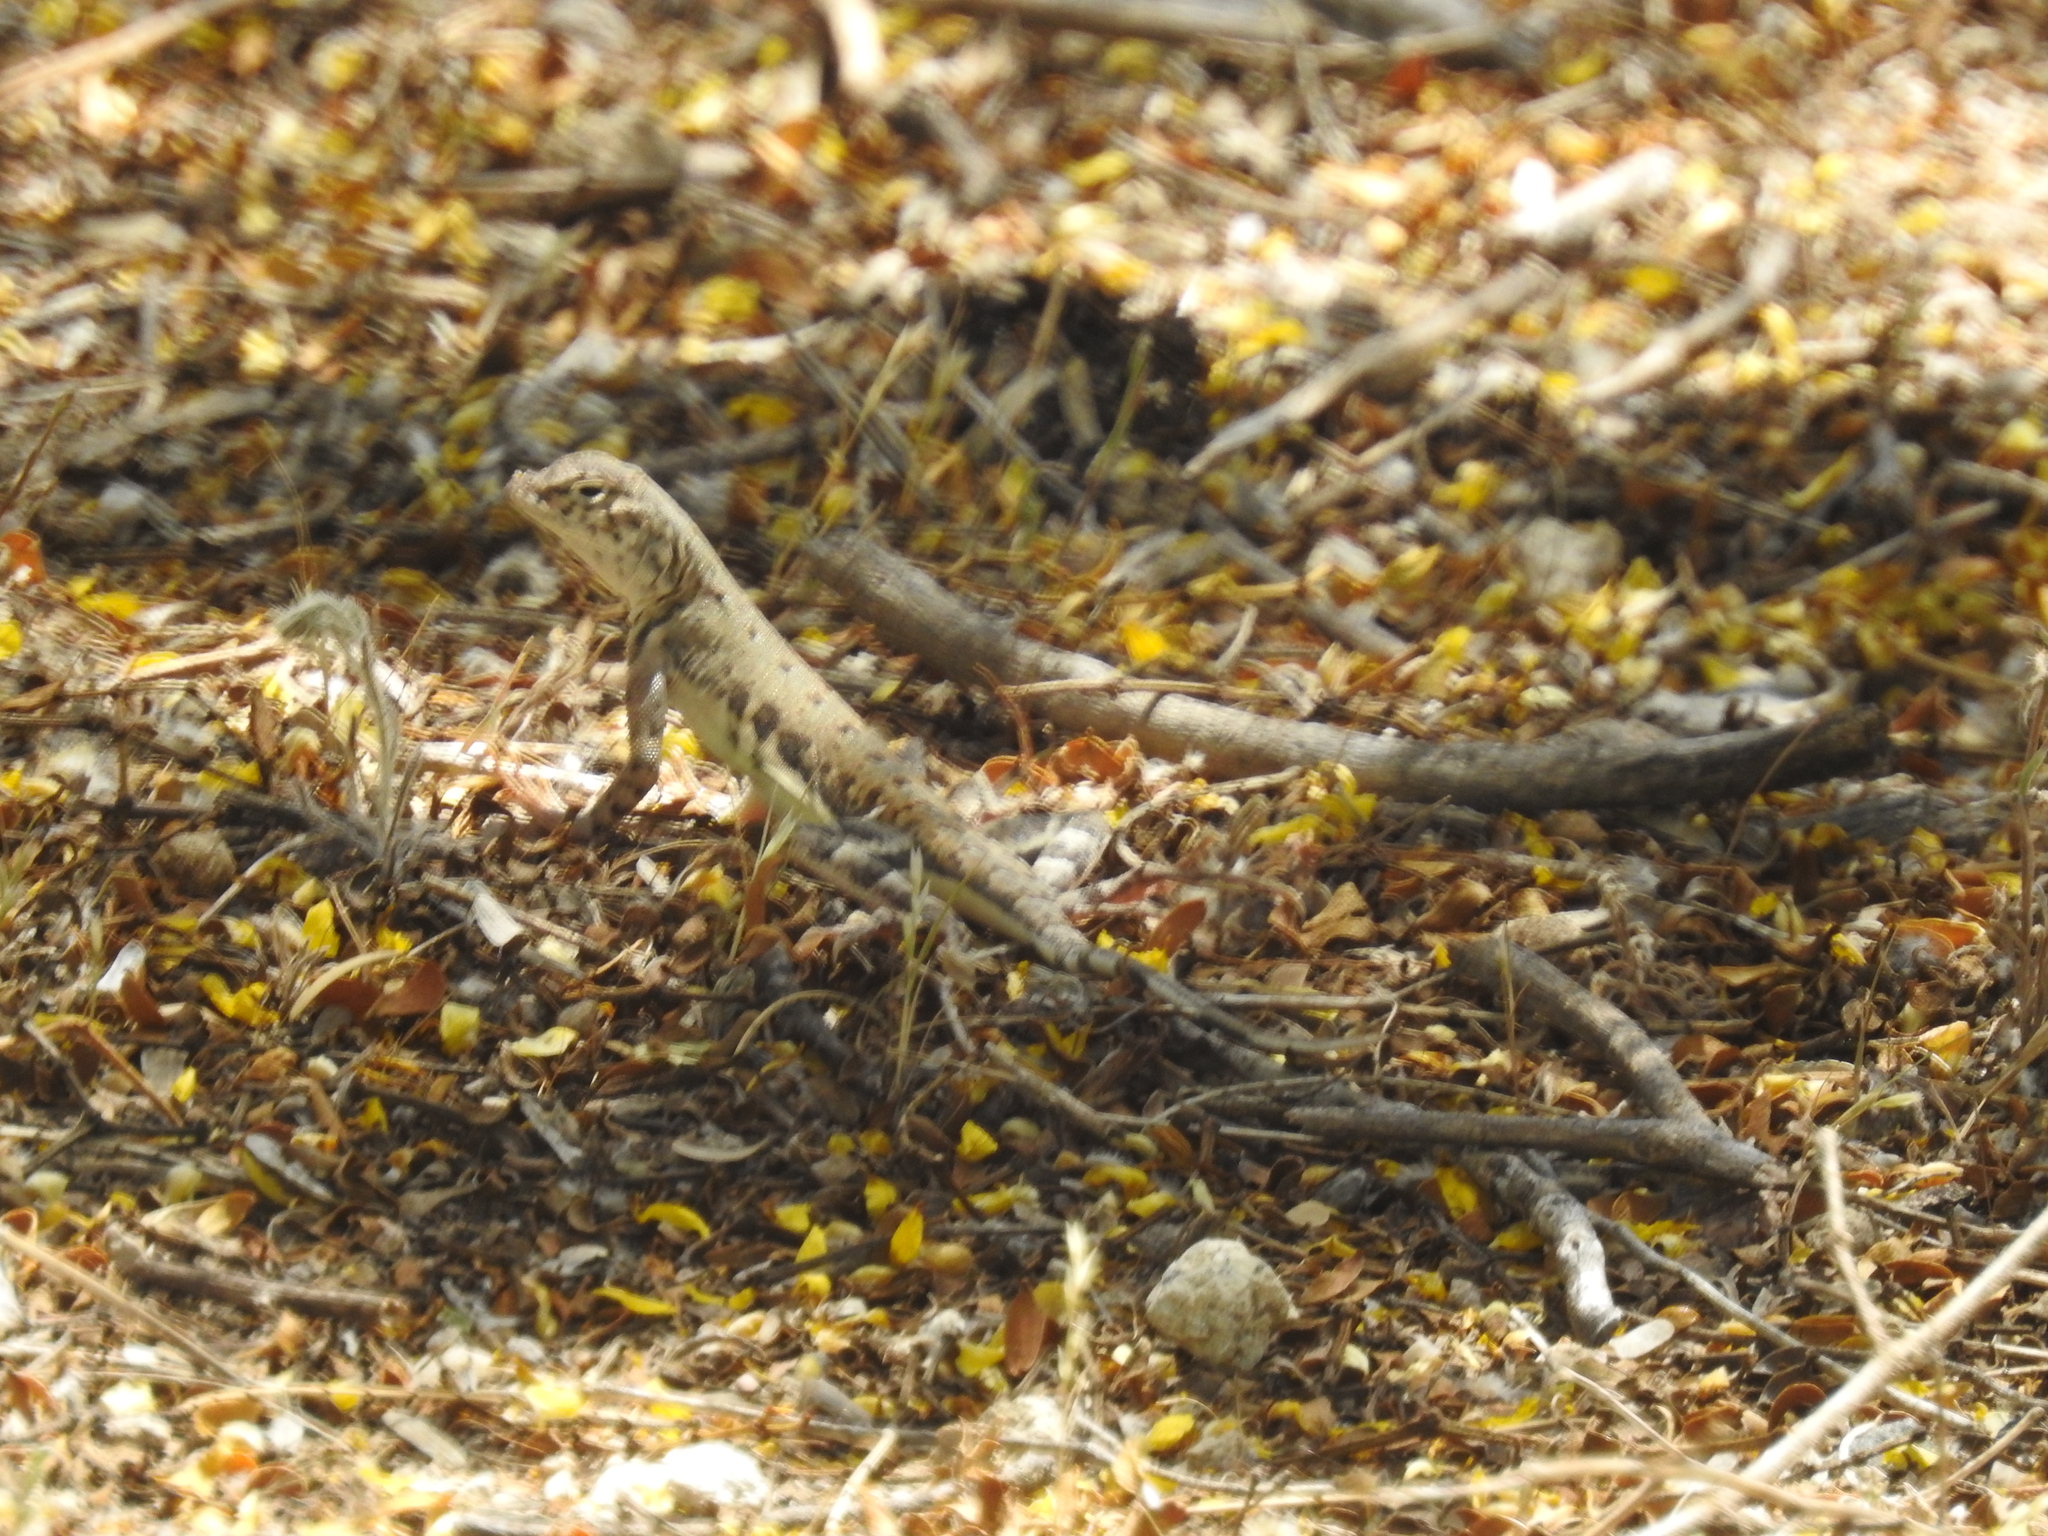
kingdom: Animalia
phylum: Chordata
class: Squamata
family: Phrynosomatidae
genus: Callisaurus
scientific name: Callisaurus draconoides
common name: Zebra-tailed lizard
